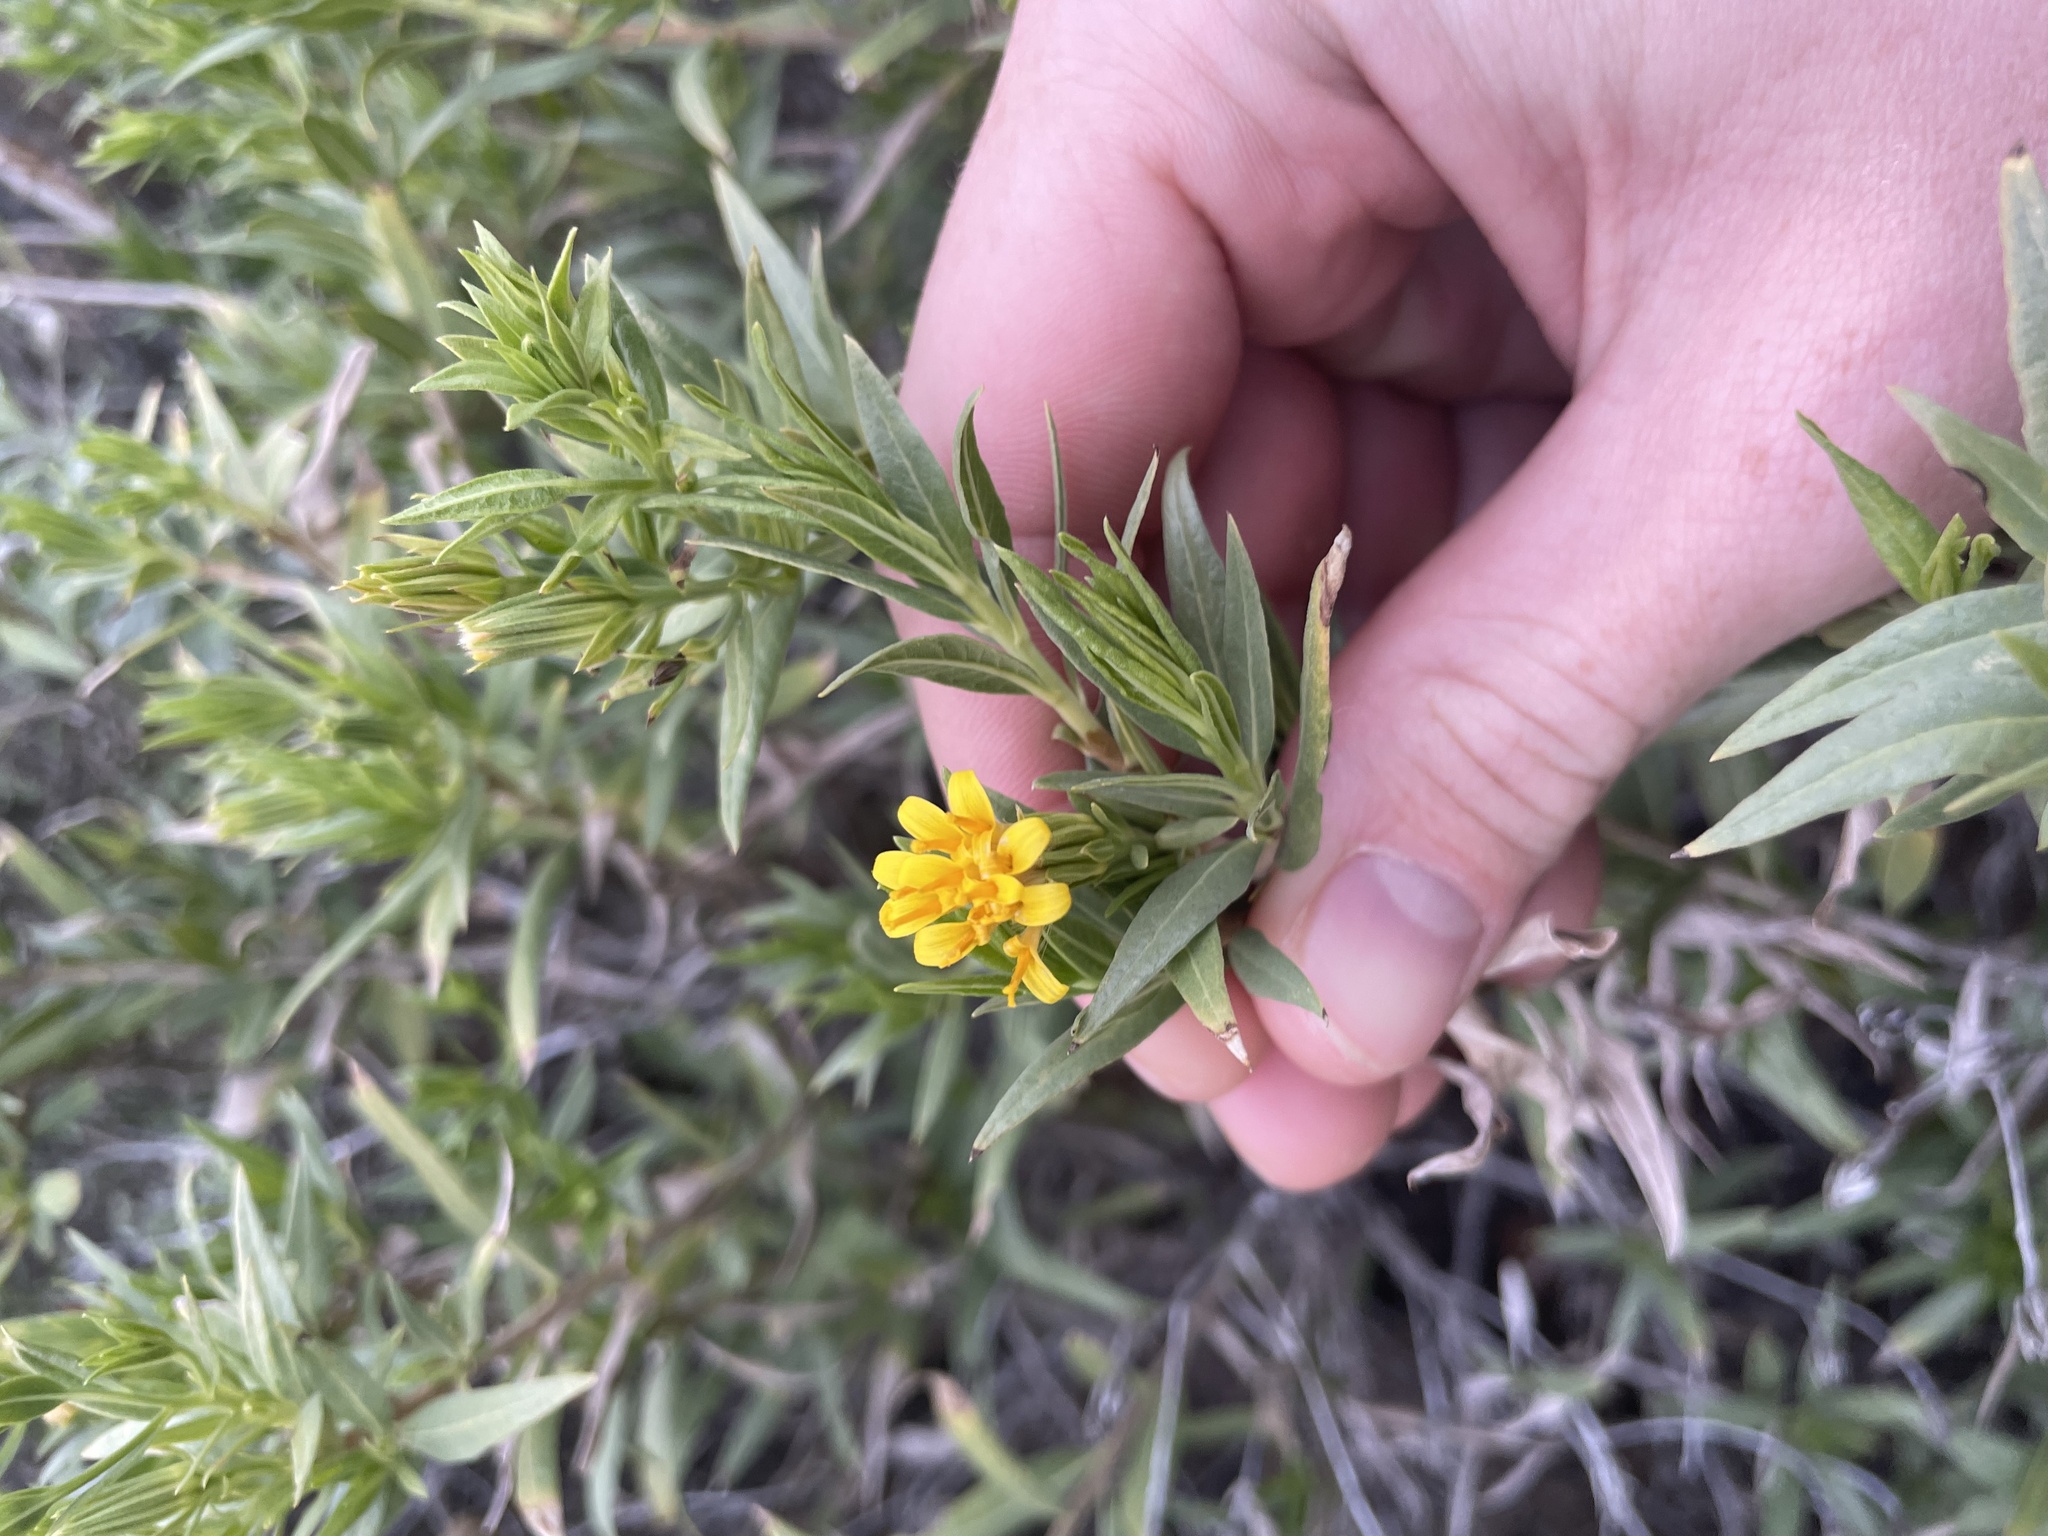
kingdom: Plantae
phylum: Tracheophyta
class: Magnoliopsida
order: Asterales
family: Asteraceae
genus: Trixis
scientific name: Trixis californica
